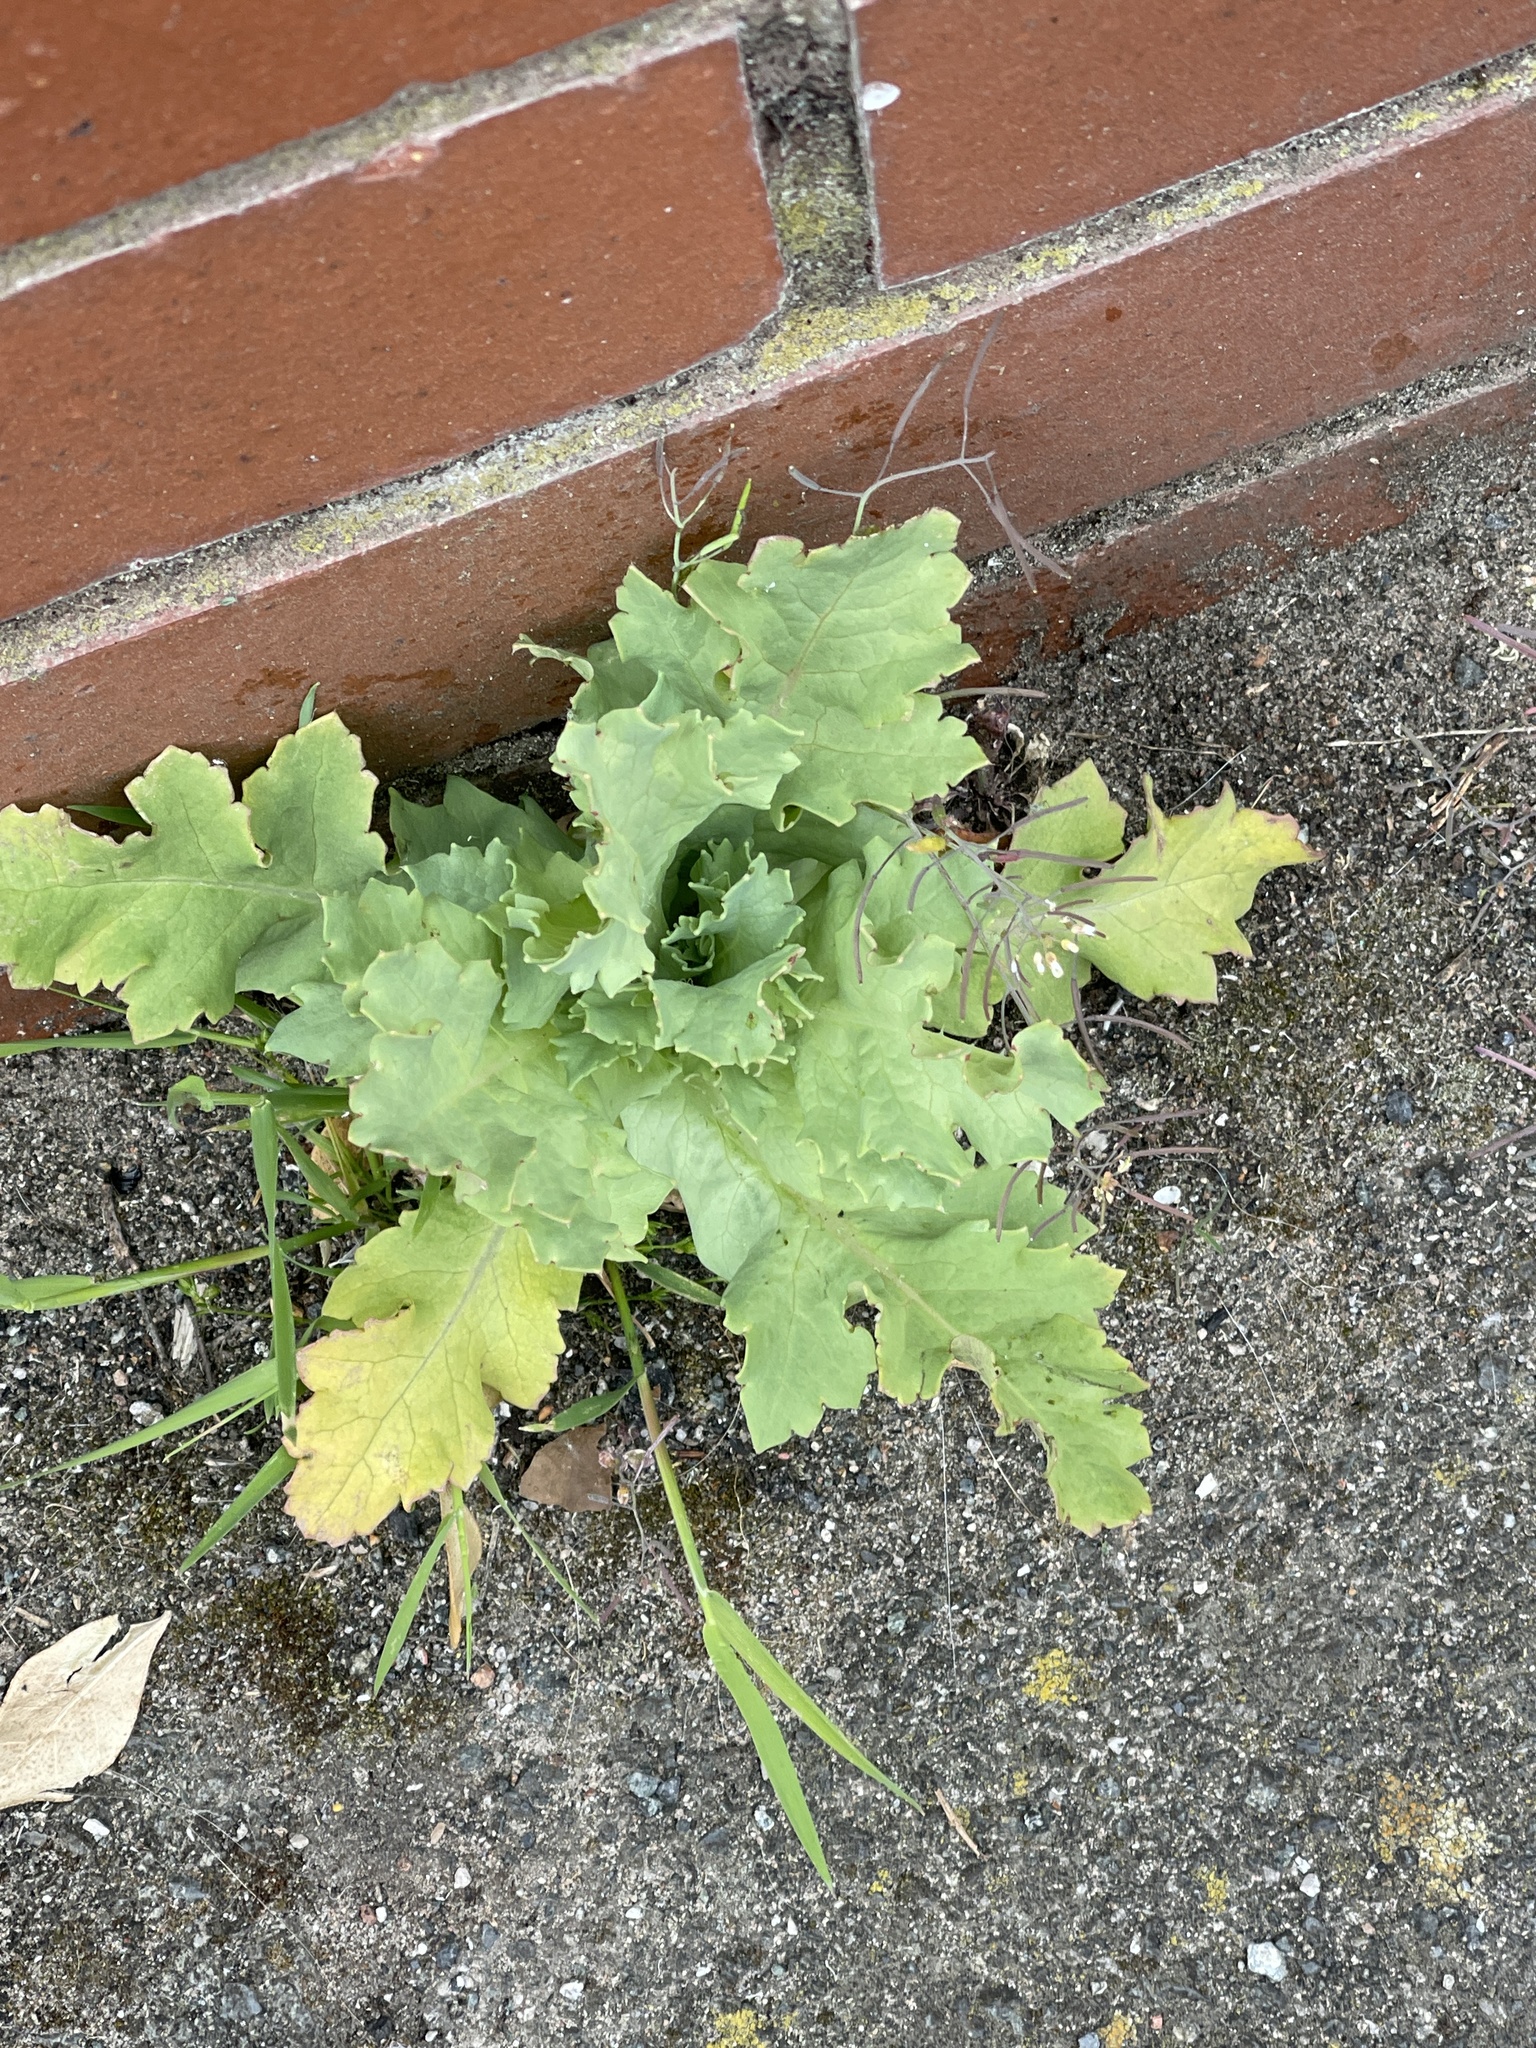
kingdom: Plantae
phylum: Tracheophyta
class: Magnoliopsida
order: Ranunculales
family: Papaveraceae
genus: Chelidonium
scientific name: Chelidonium majus
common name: Greater celandine
